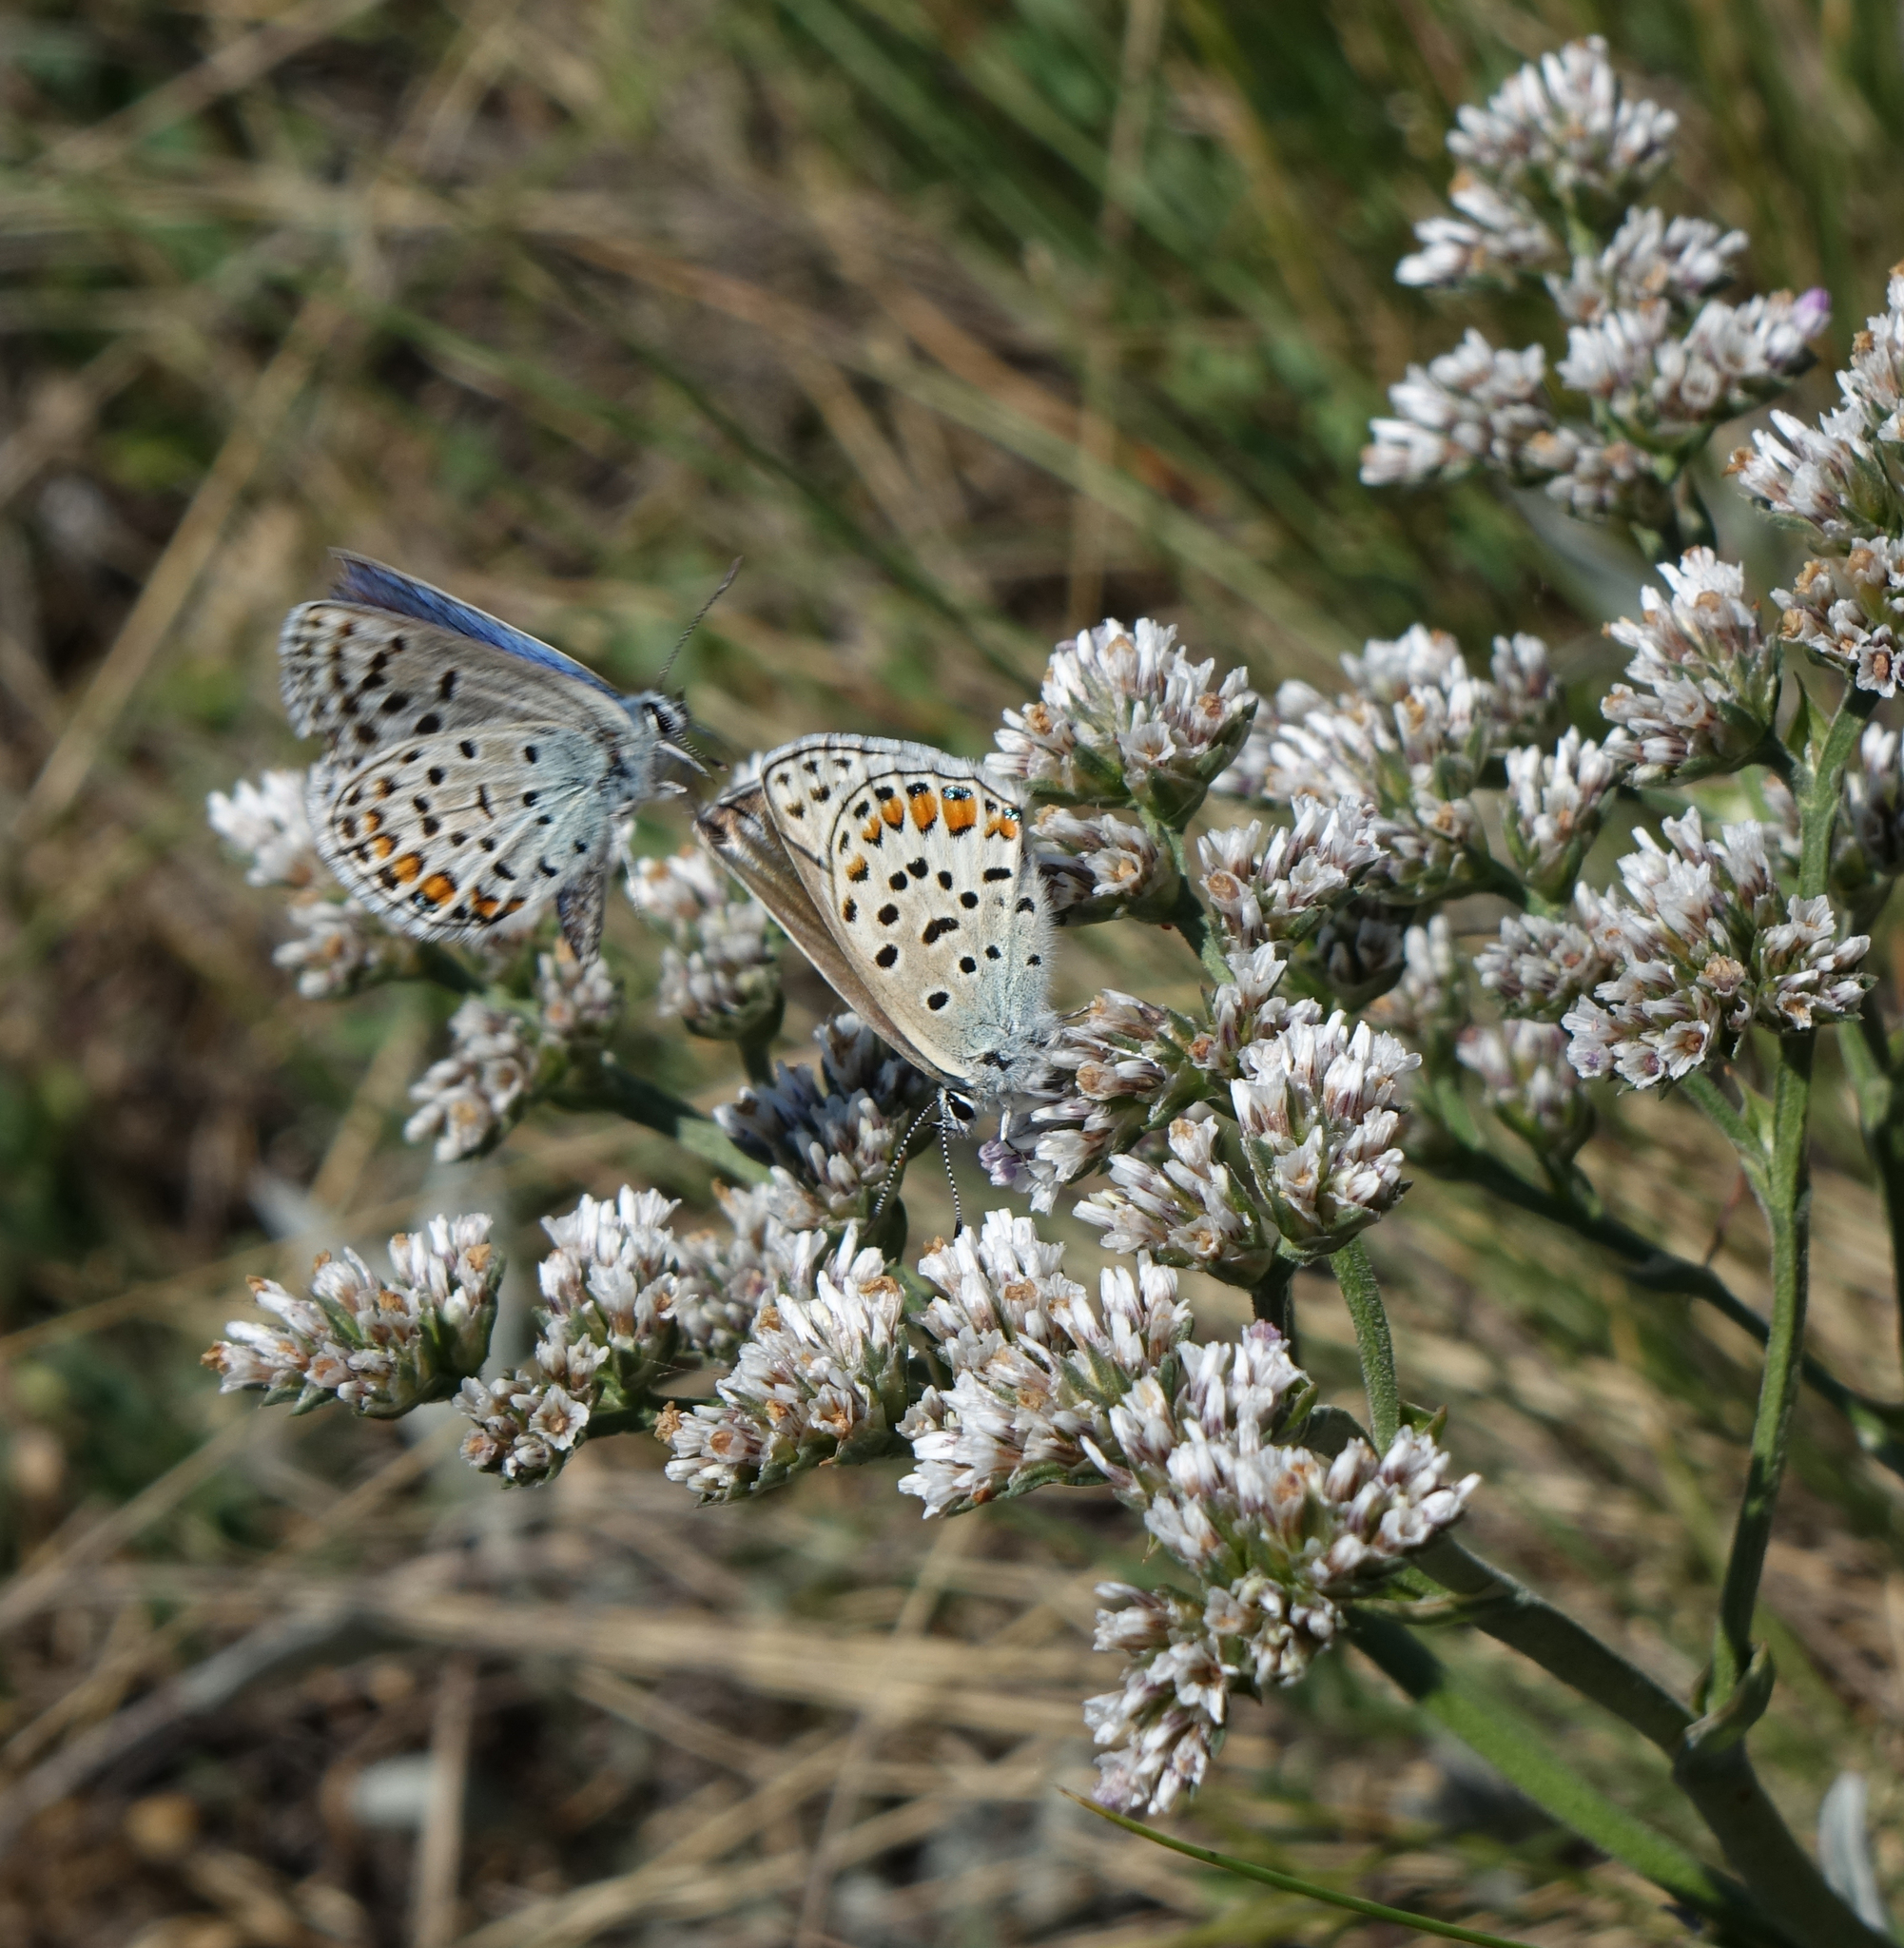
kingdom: Animalia
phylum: Arthropoda
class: Insecta
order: Lepidoptera
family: Lycaenidae
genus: Glabroculus
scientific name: Glabroculus cyane
